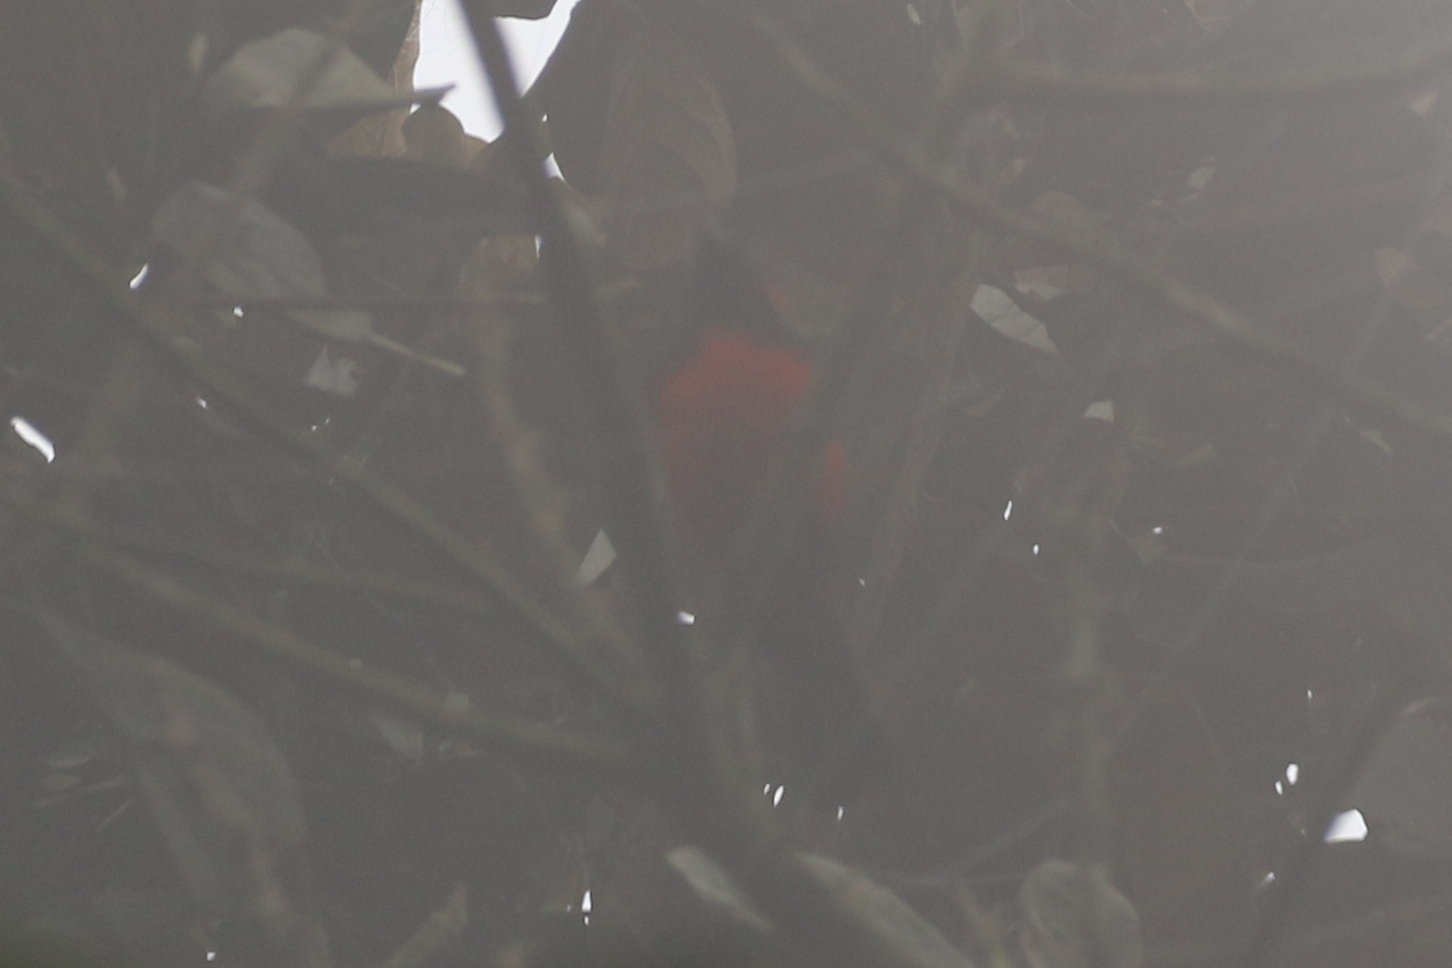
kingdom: Animalia
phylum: Chordata
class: Aves
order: Passeriformes
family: Thraupidae
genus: Anisognathus
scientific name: Anisognathus igniventris
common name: Scarlet-bellied mountain tanager
